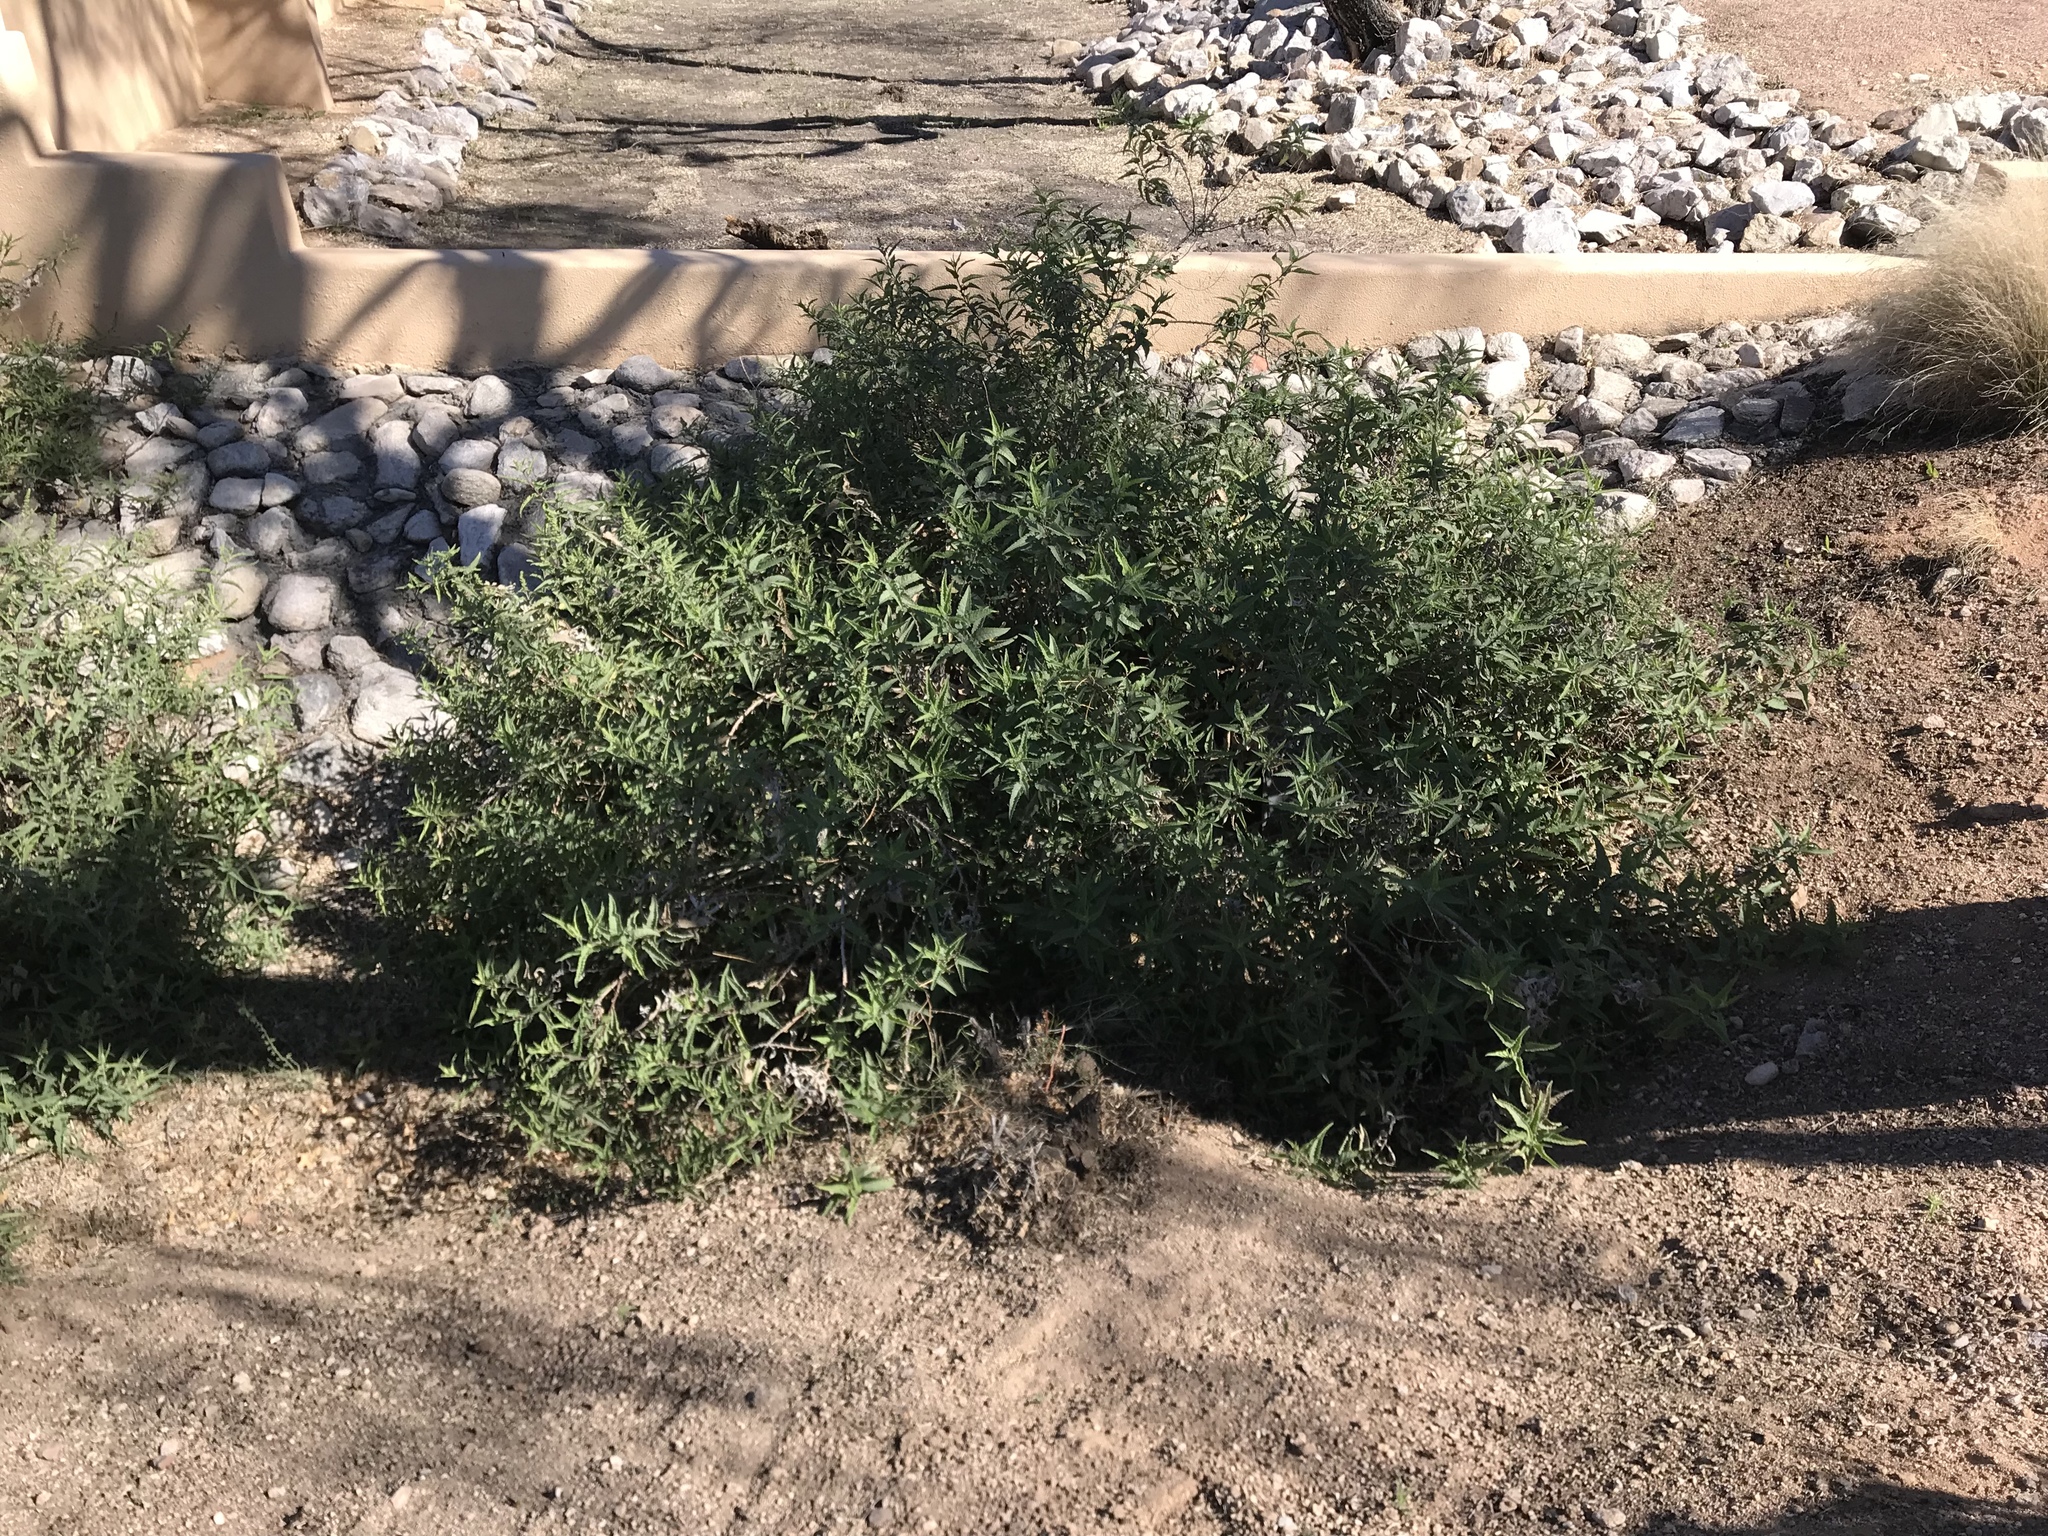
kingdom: Plantae
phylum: Tracheophyta
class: Magnoliopsida
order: Asterales
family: Asteraceae
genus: Ambrosia
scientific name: Ambrosia ambrosioides
